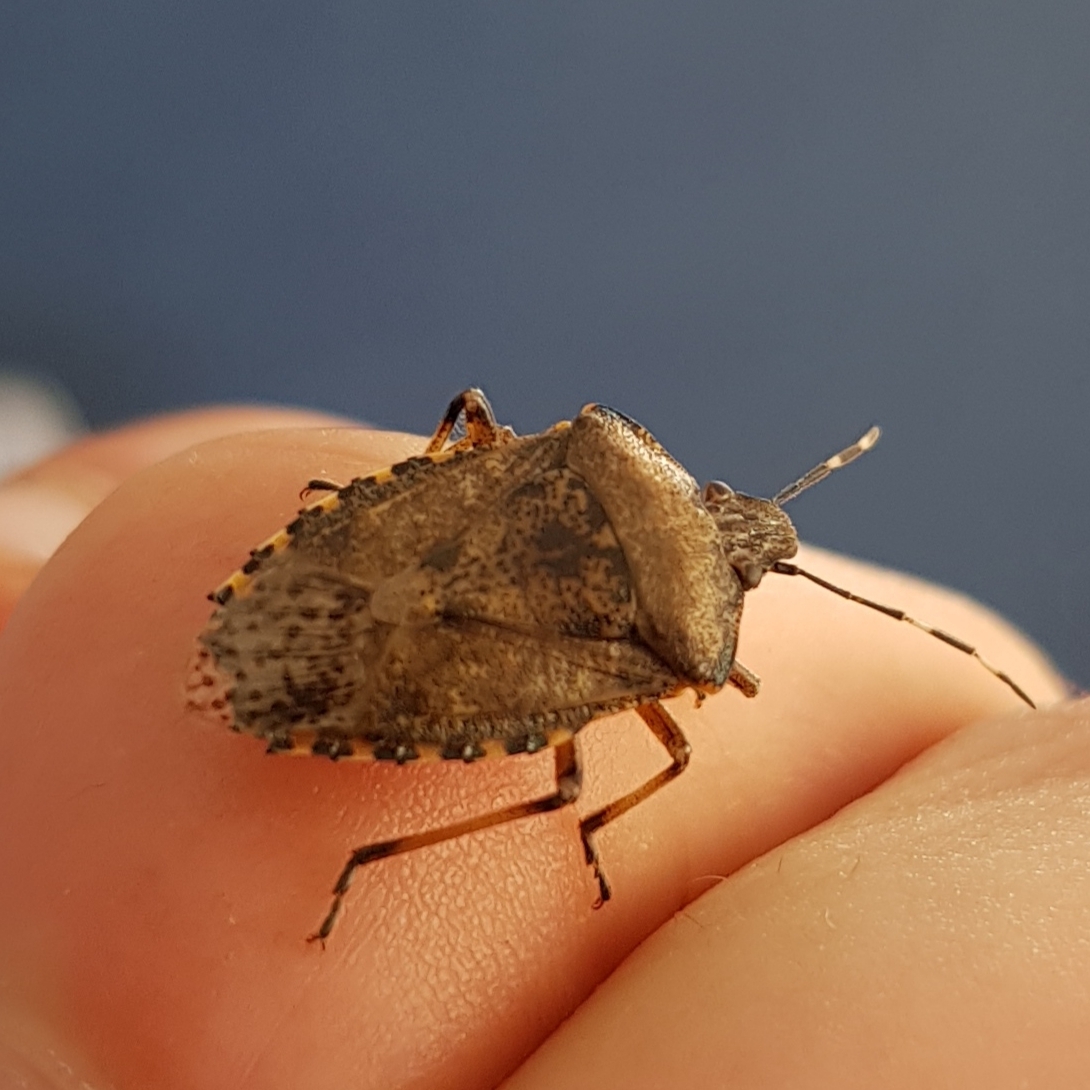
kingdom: Animalia
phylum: Arthropoda
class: Insecta
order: Hemiptera
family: Pentatomidae
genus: Rhaphigaster
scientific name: Rhaphigaster nebulosa
